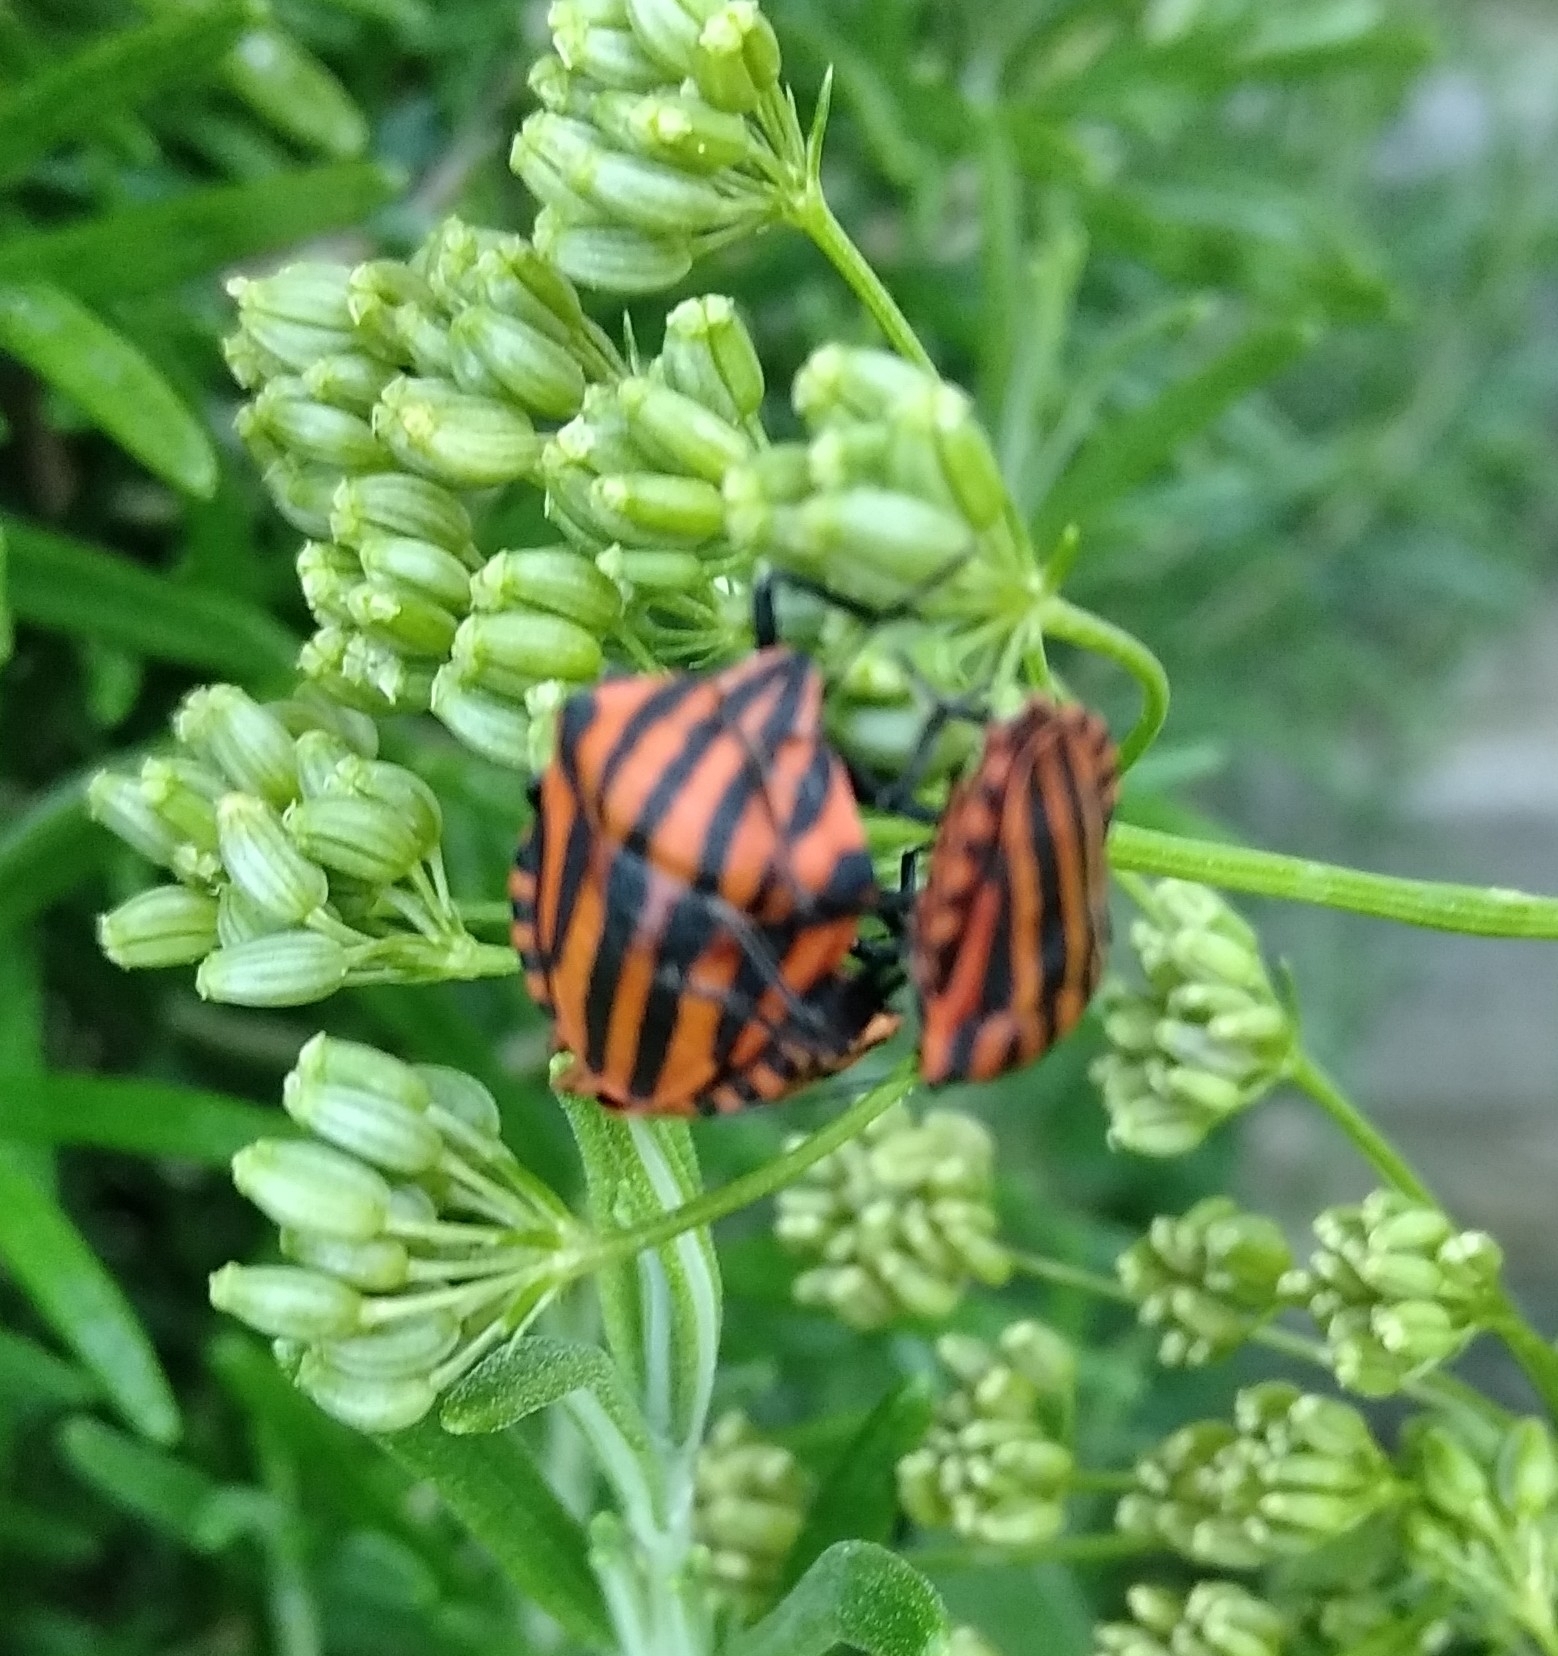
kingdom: Animalia
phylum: Arthropoda
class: Insecta
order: Hemiptera
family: Pentatomidae
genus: Graphosoma
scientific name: Graphosoma italicum
